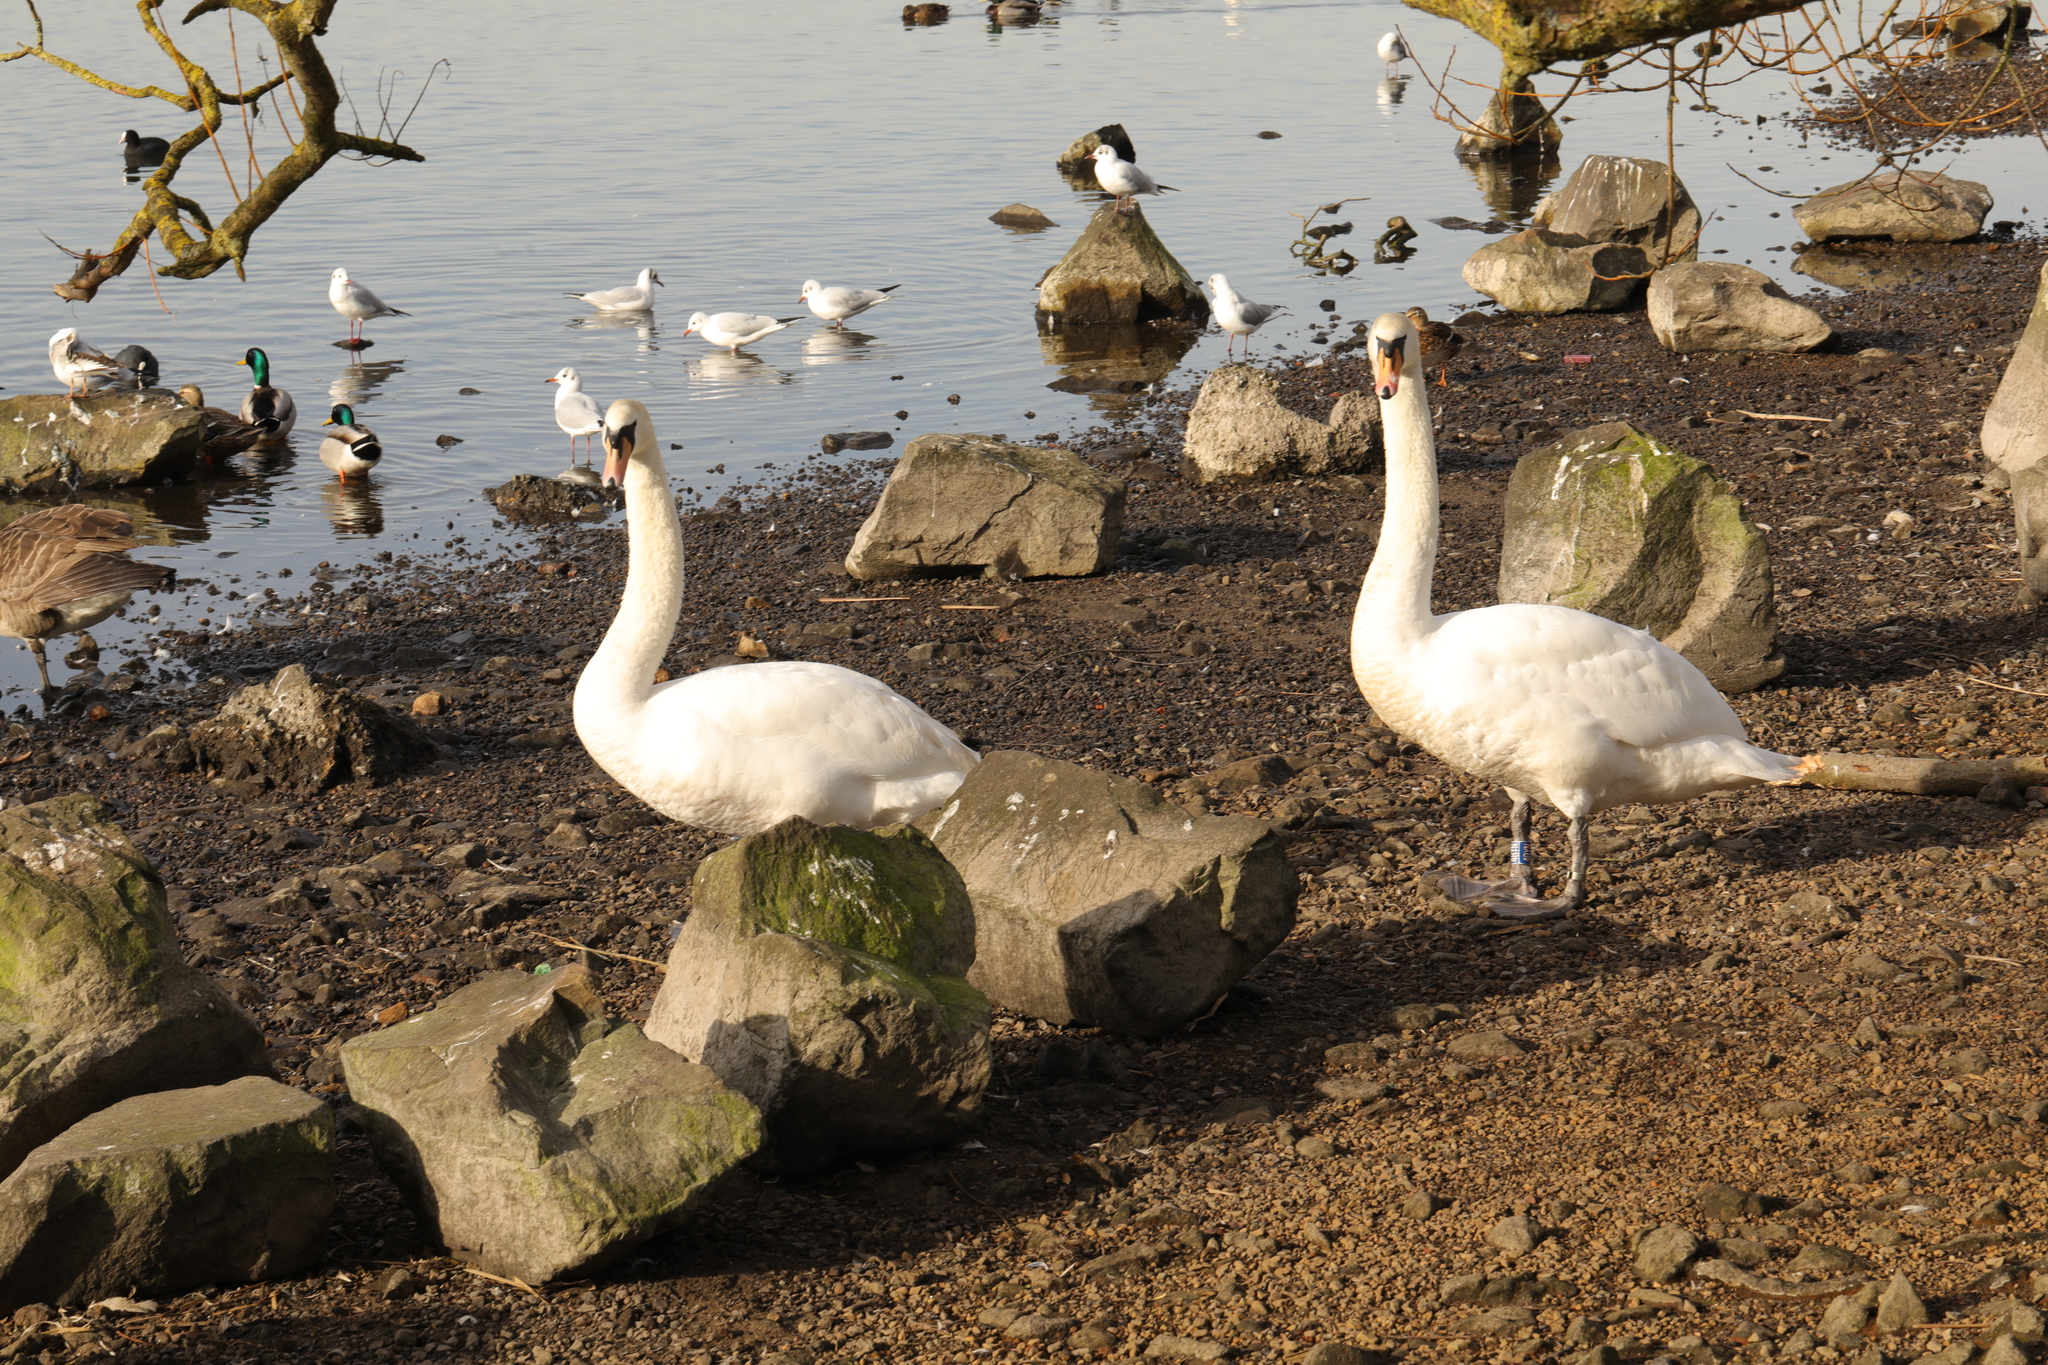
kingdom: Animalia
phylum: Chordata
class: Aves
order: Anseriformes
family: Anatidae
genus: Cygnus
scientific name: Cygnus olor
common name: Mute swan
